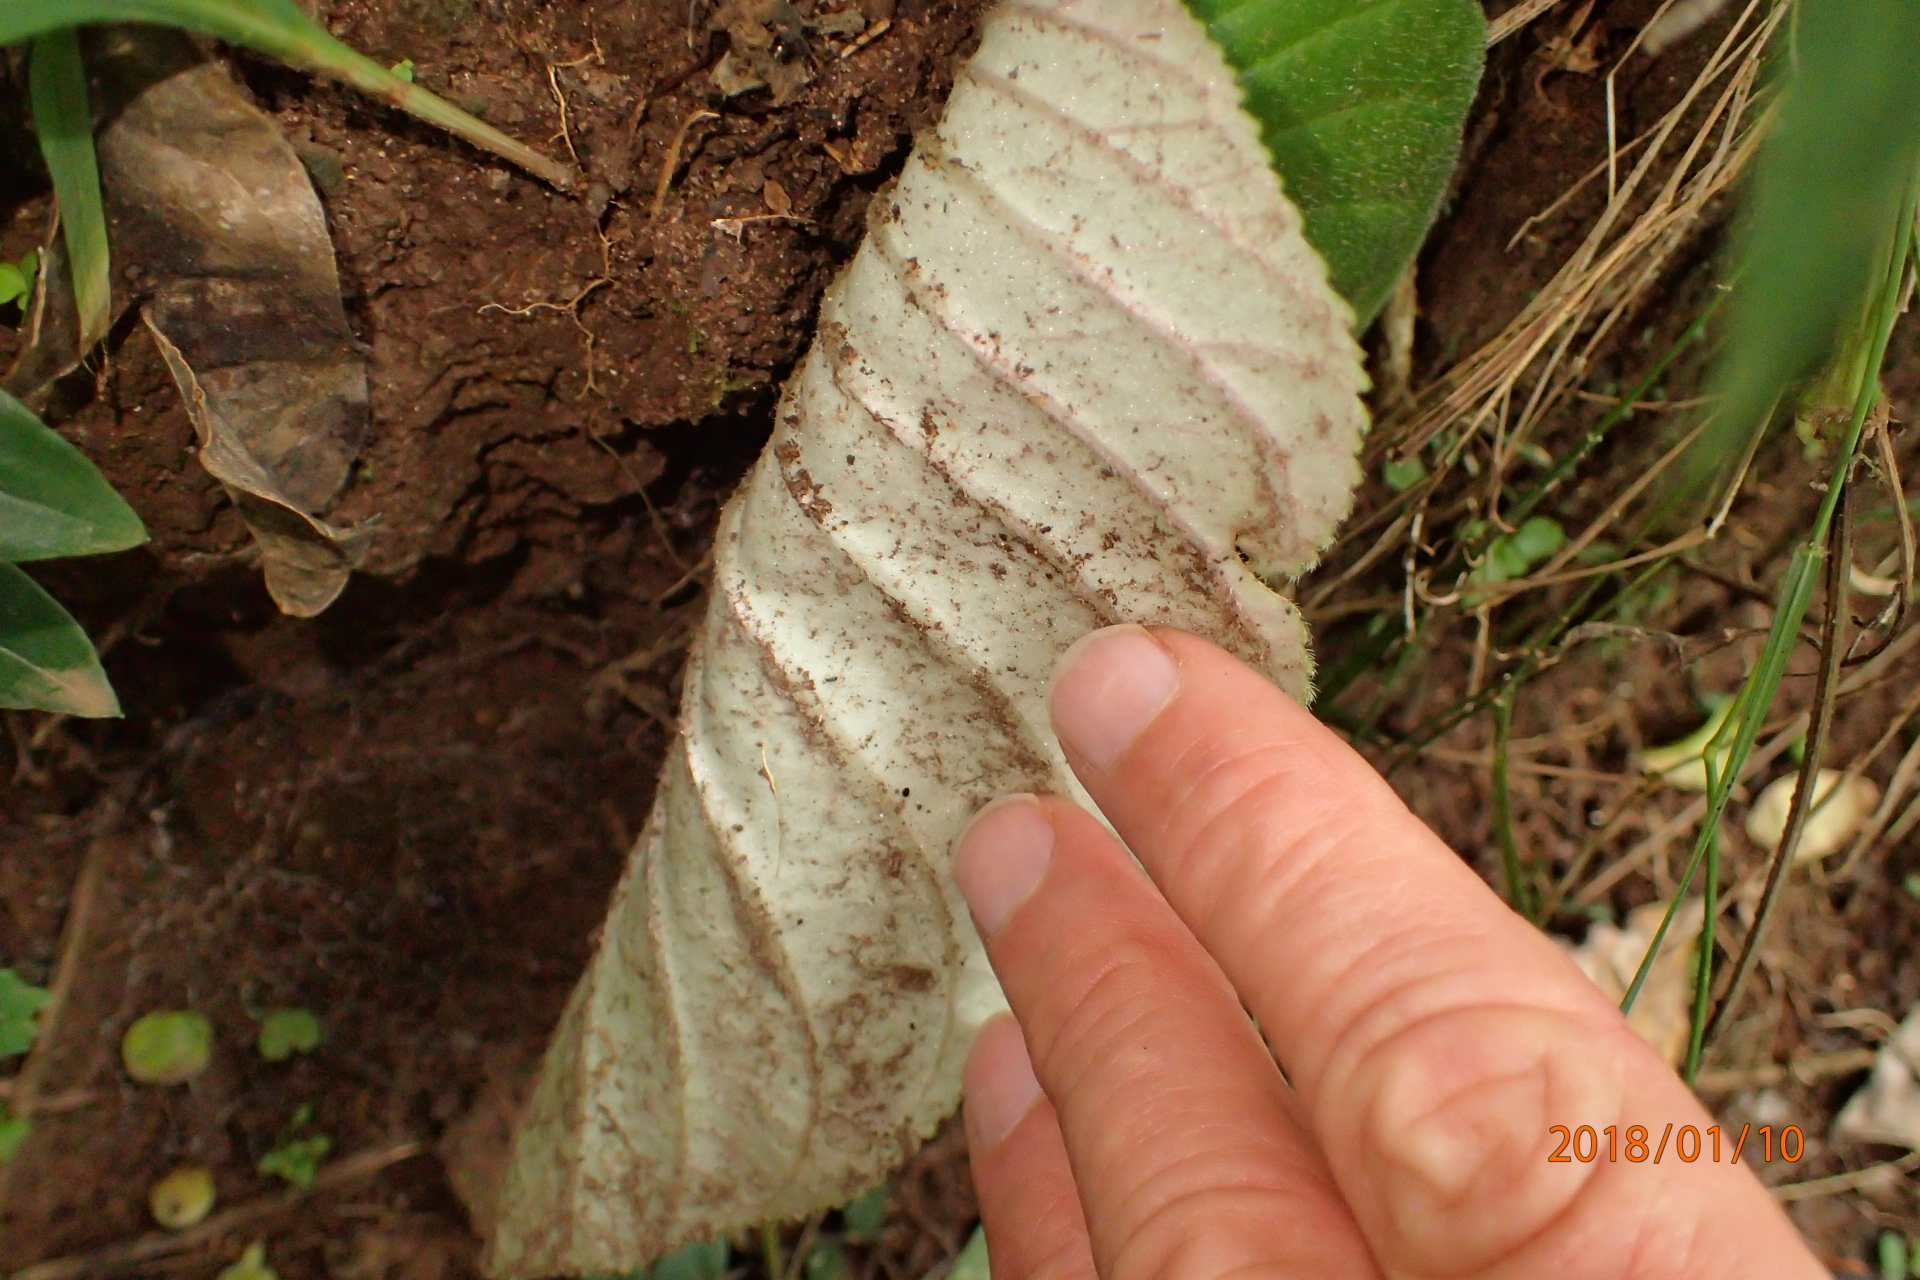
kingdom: Plantae
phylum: Tracheophyta
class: Magnoliopsida
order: Lamiales
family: Gesneriaceae
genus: Streptocarpus
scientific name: Streptocarpus molweniensis
